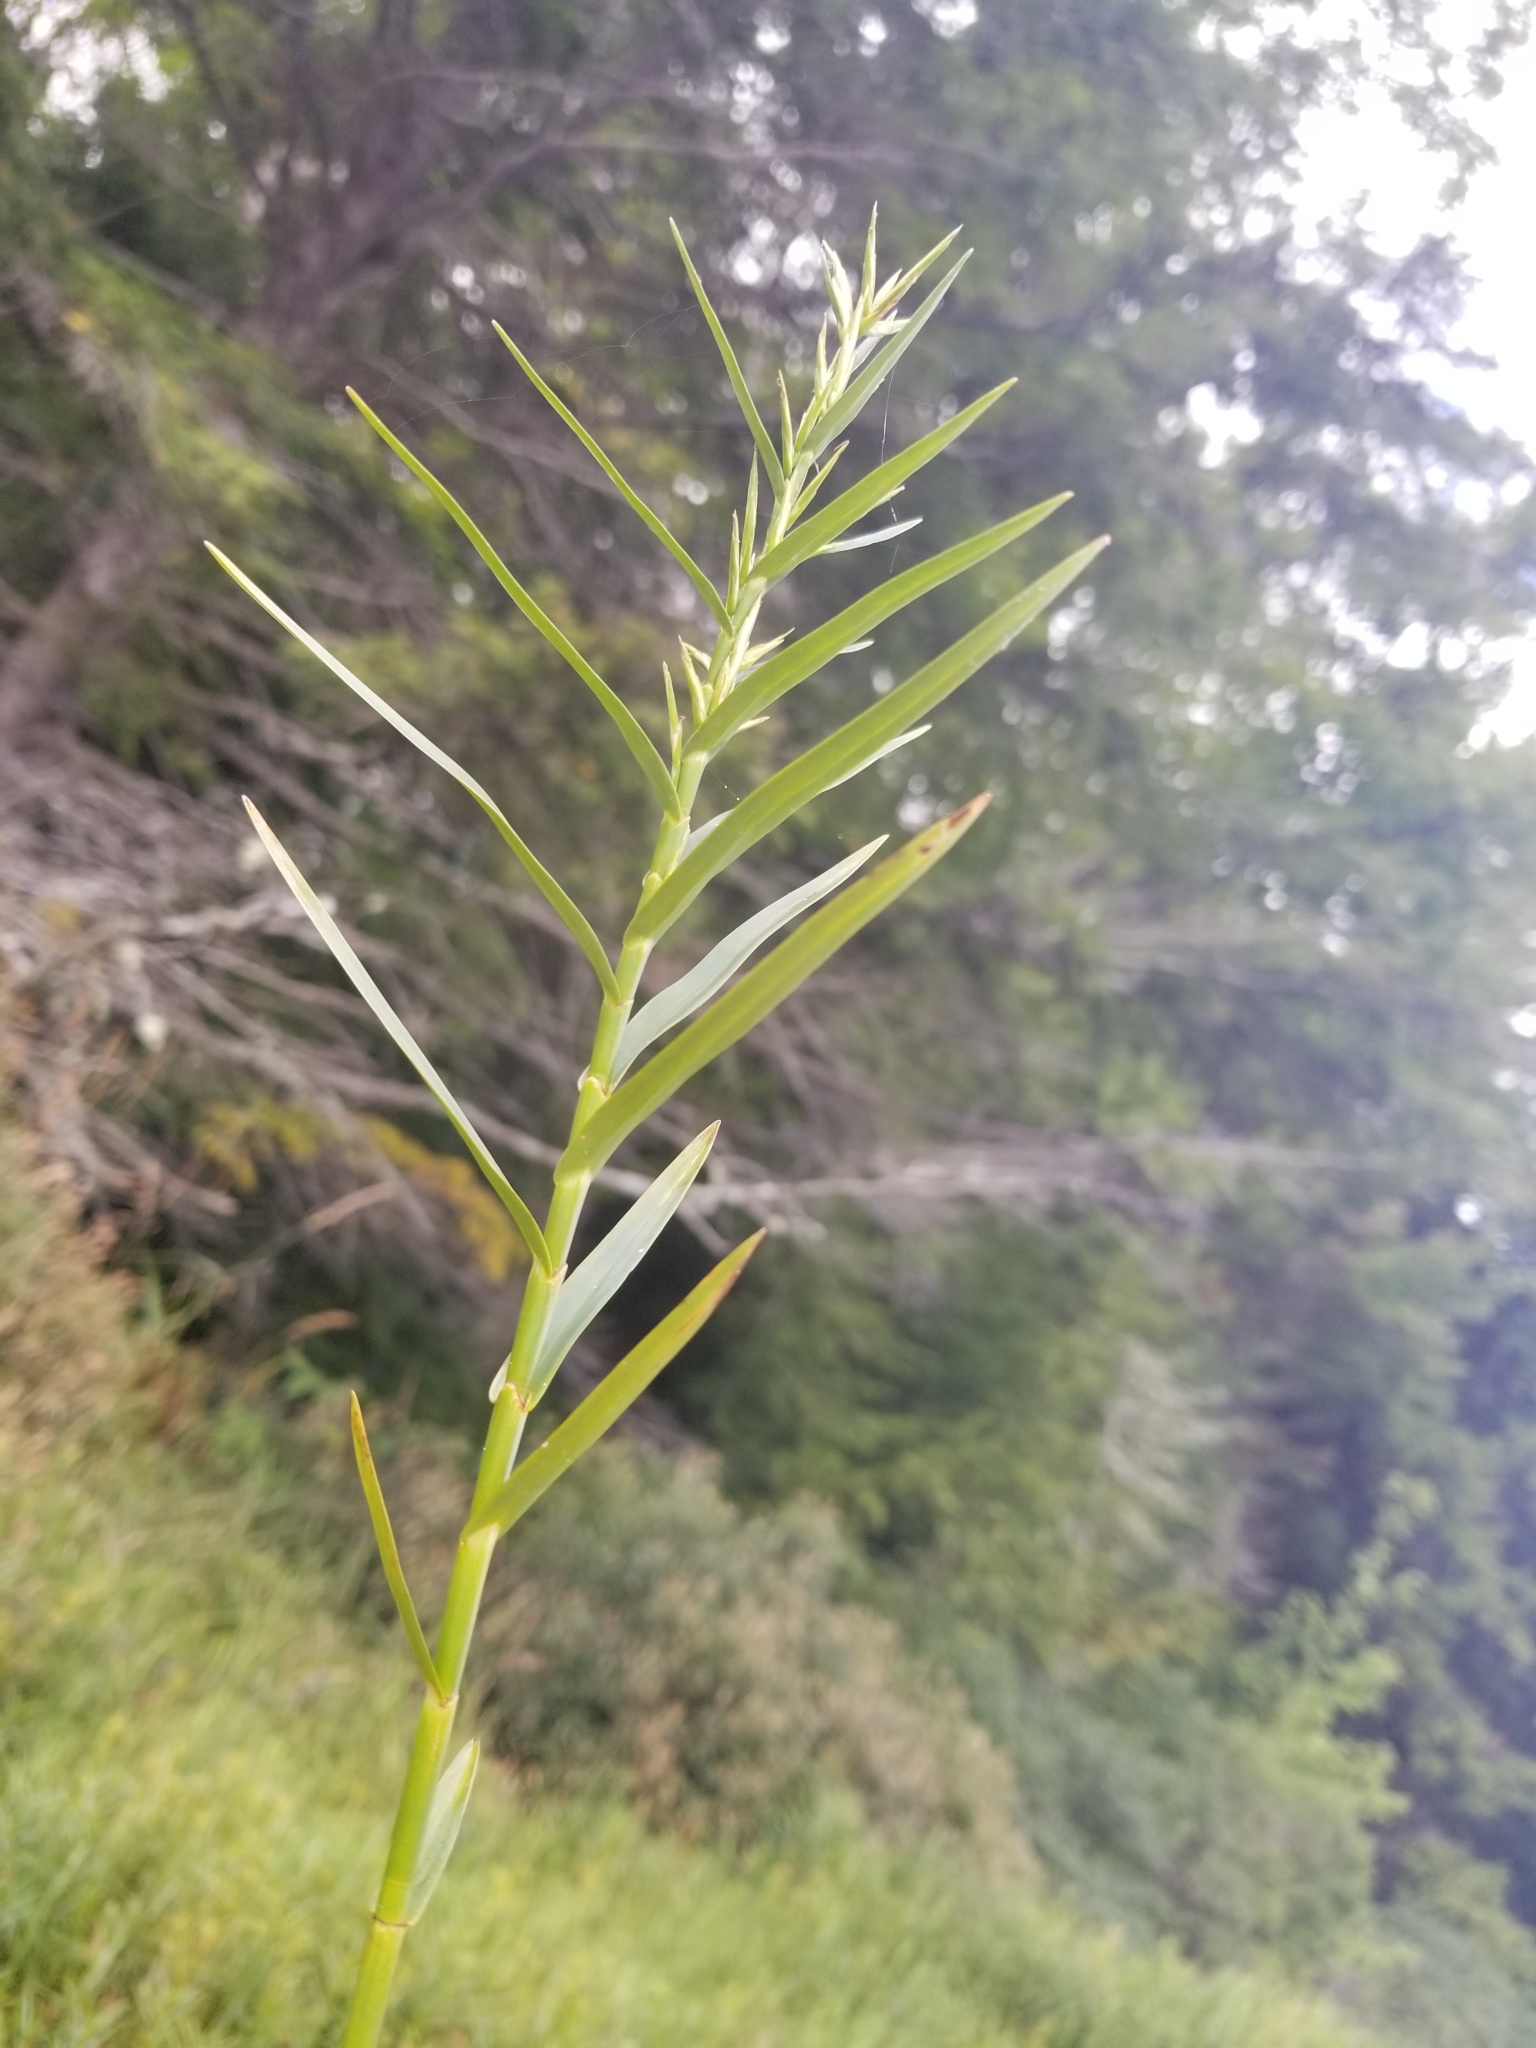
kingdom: Plantae
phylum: Tracheophyta
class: Liliopsida
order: Poales
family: Cyperaceae
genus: Dulichium
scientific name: Dulichium arundinaceum
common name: Three-way sedge
